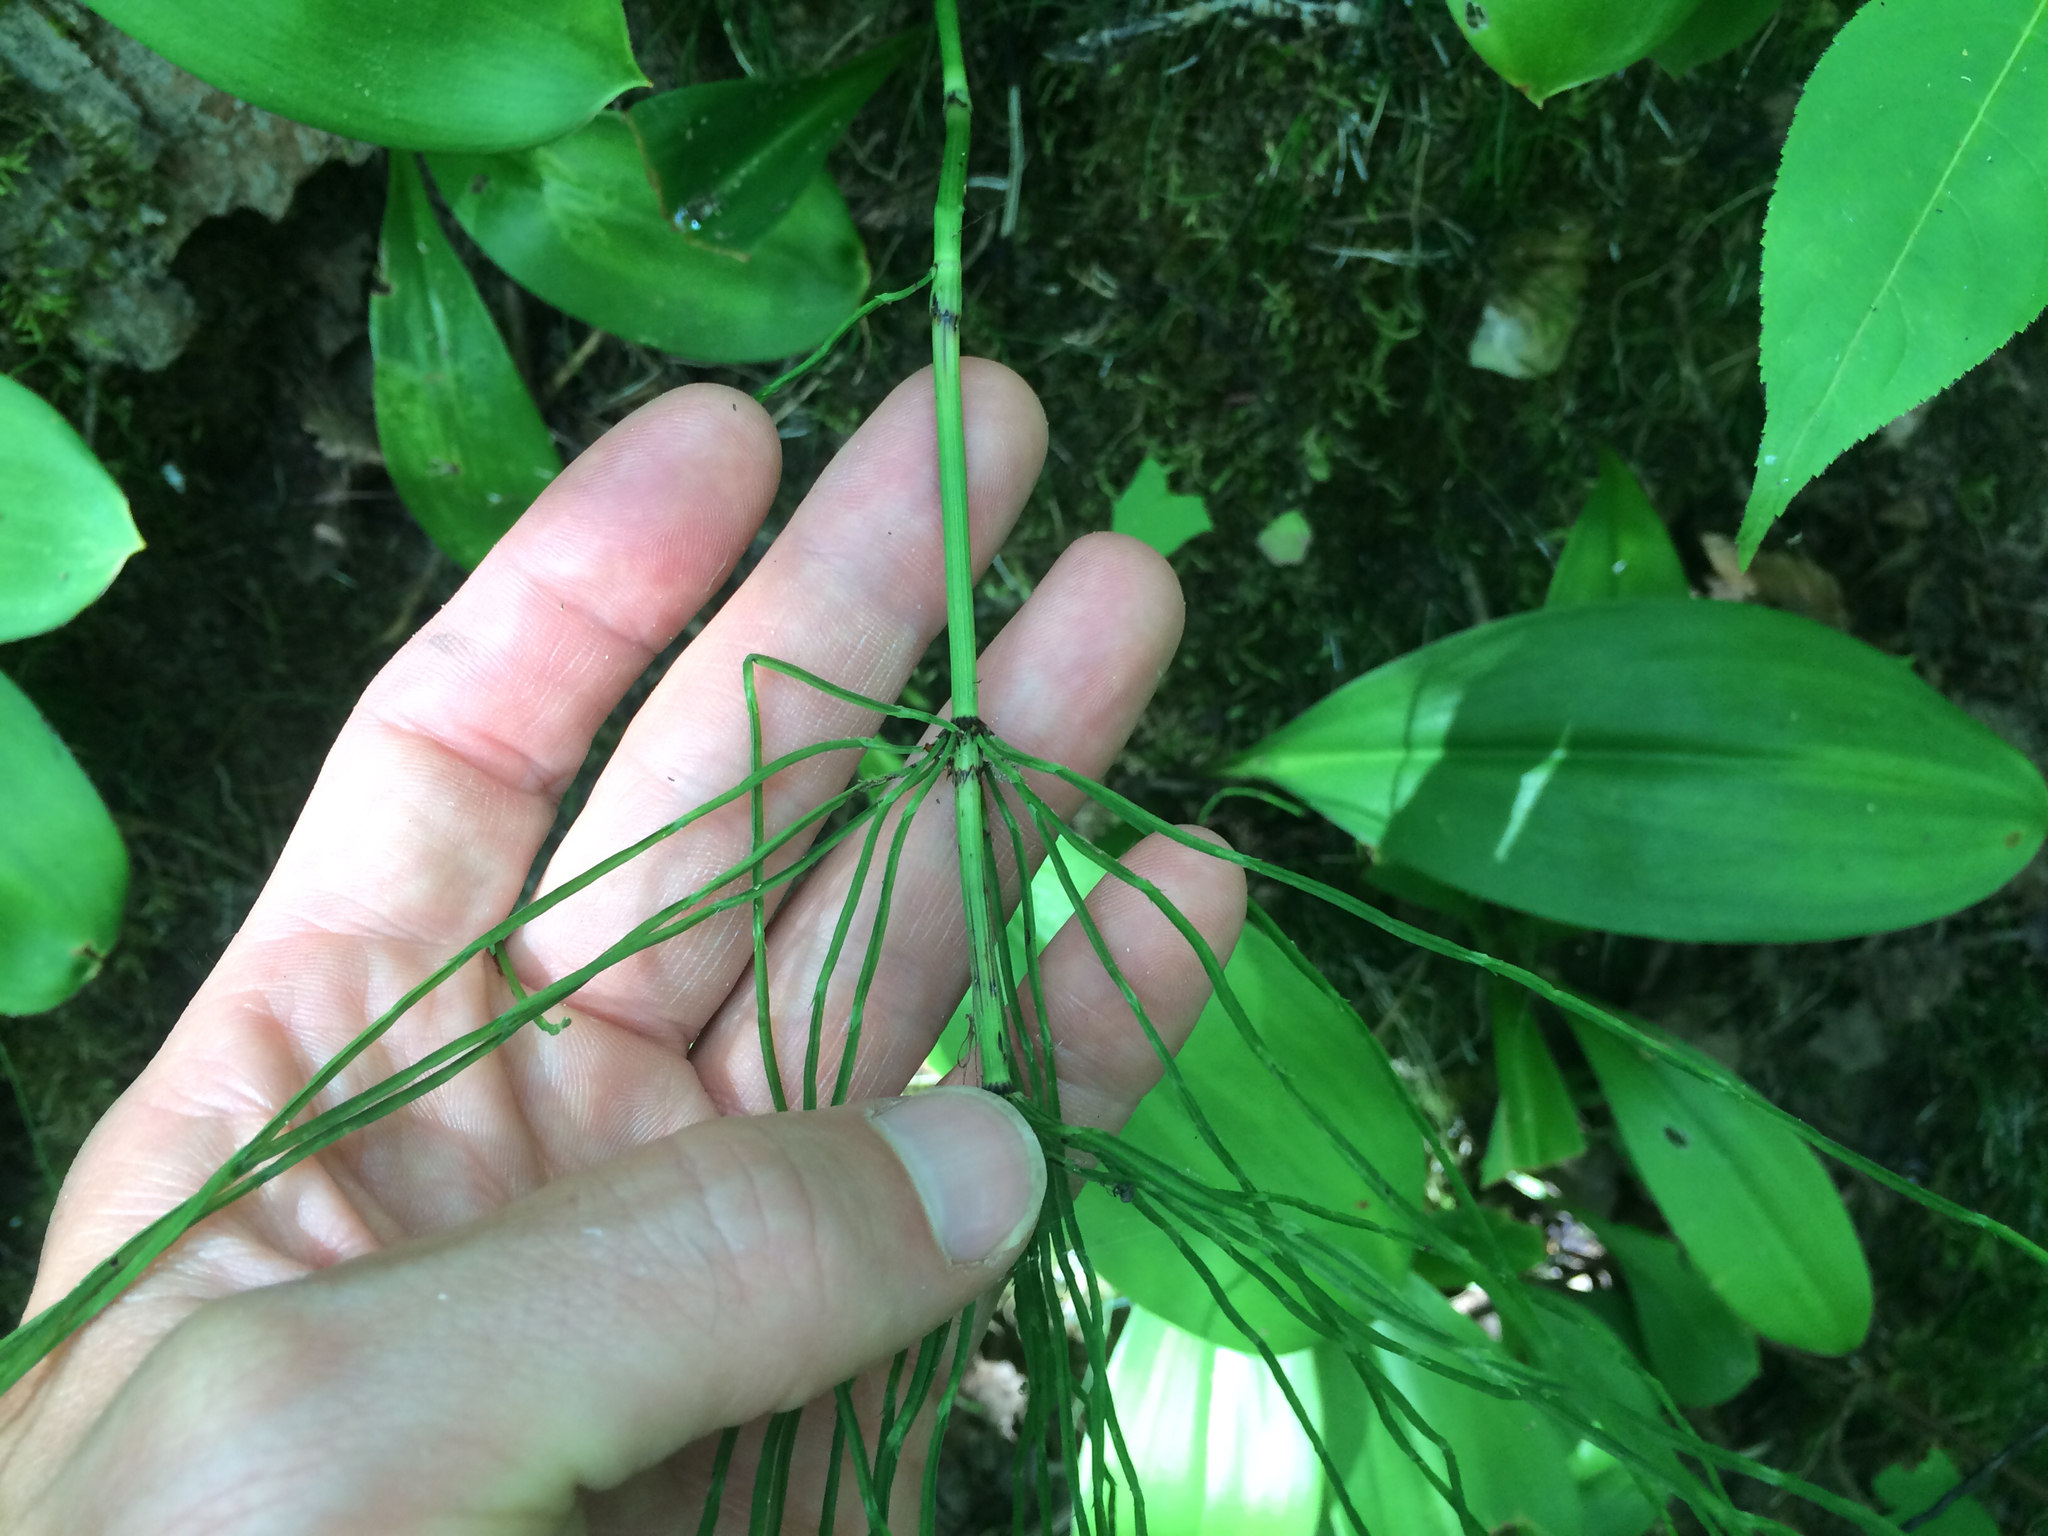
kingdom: Plantae
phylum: Tracheophyta
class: Polypodiopsida
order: Equisetales
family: Equisetaceae
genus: Equisetum
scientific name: Equisetum arvense
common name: Field horsetail
